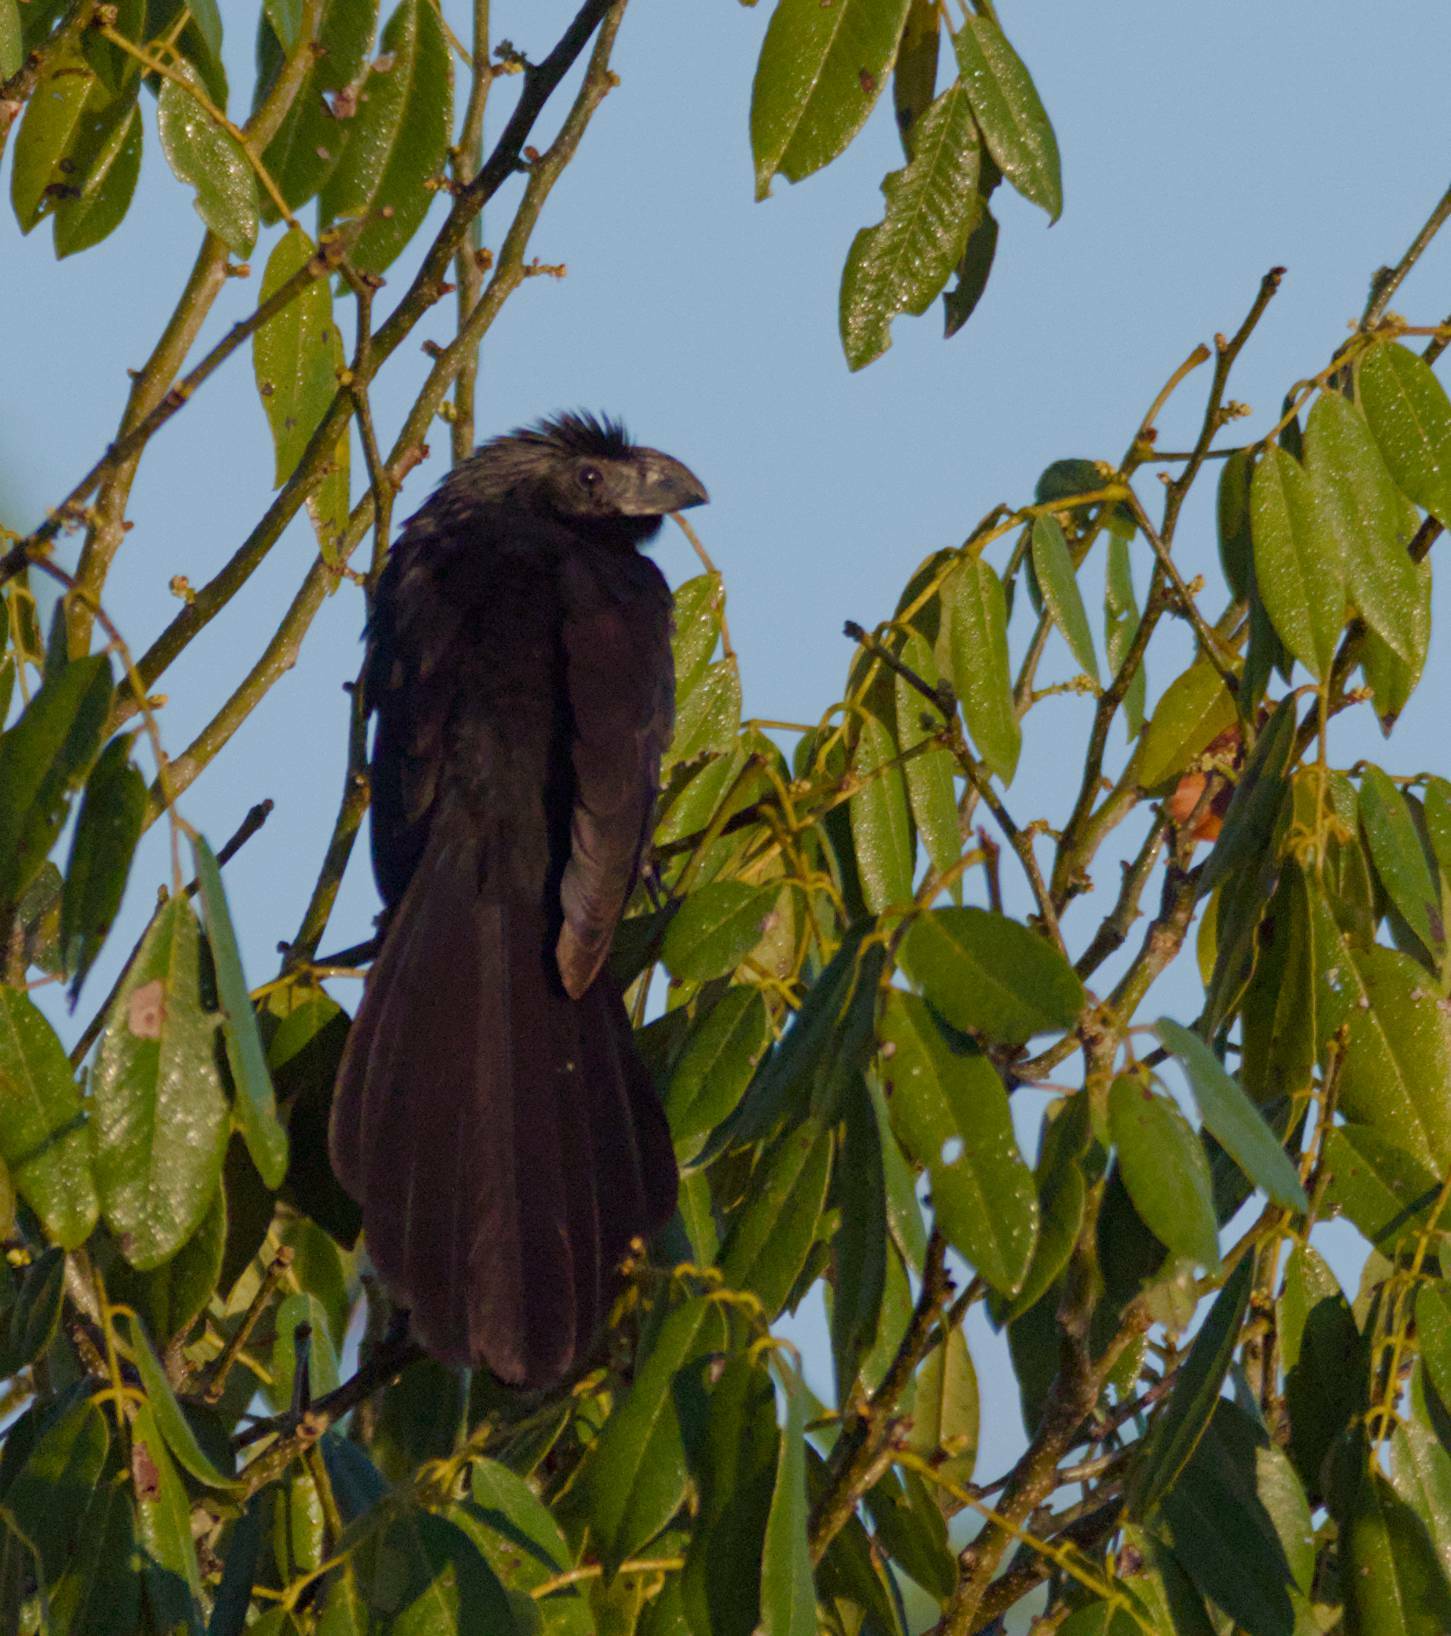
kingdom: Animalia
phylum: Chordata
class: Aves
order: Cuculiformes
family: Cuculidae
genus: Crotophaga
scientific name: Crotophaga sulcirostris
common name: Groove-billed ani
